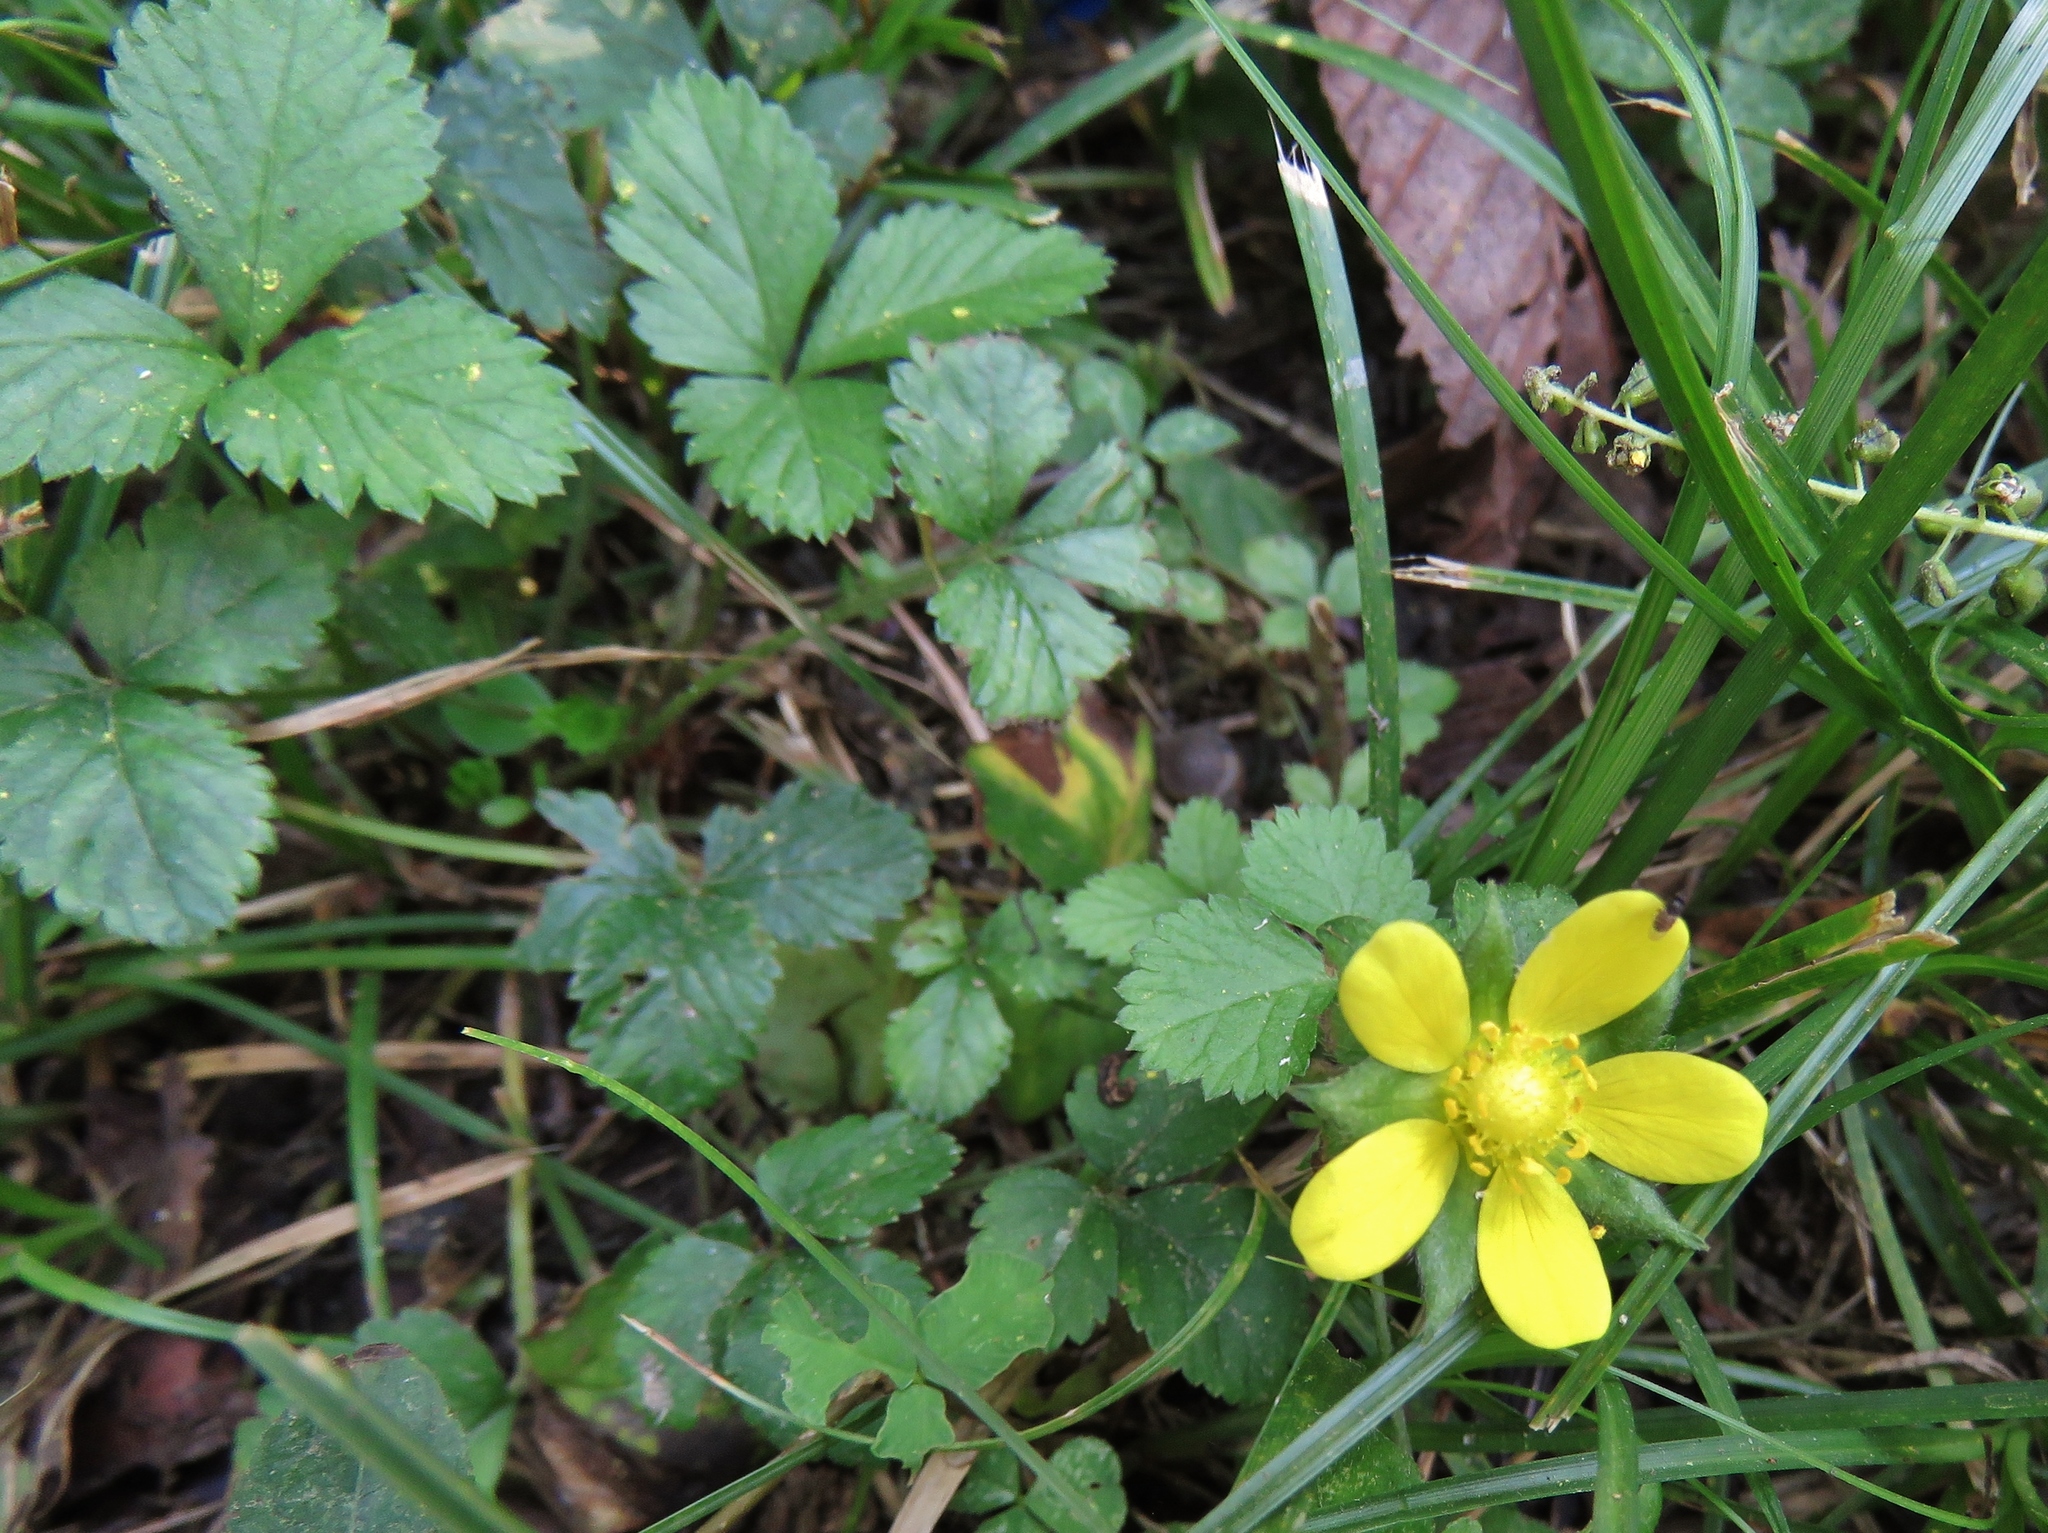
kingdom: Plantae
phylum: Tracheophyta
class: Magnoliopsida
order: Rosales
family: Rosaceae
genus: Potentilla
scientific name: Potentilla indica
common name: Yellow-flowered strawberry
